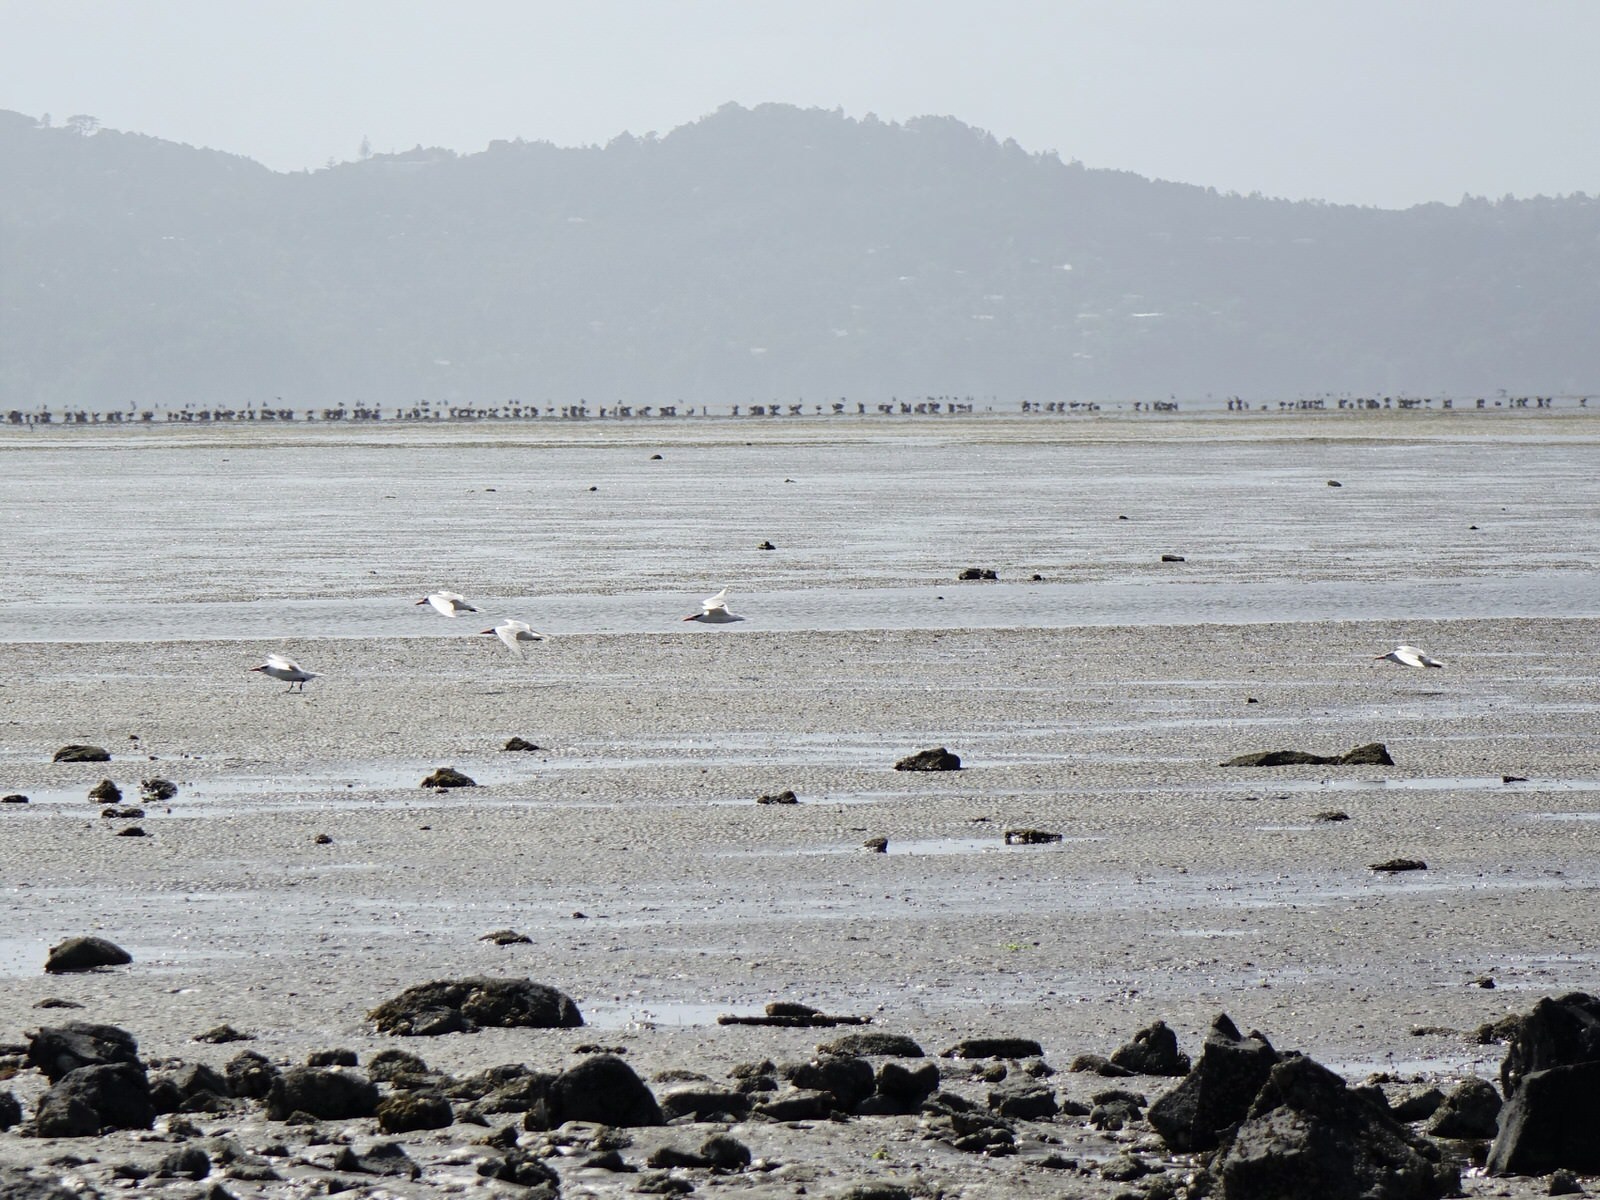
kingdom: Animalia
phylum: Chordata
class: Aves
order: Charadriiformes
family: Laridae
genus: Hydroprogne
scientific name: Hydroprogne caspia
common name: Caspian tern
